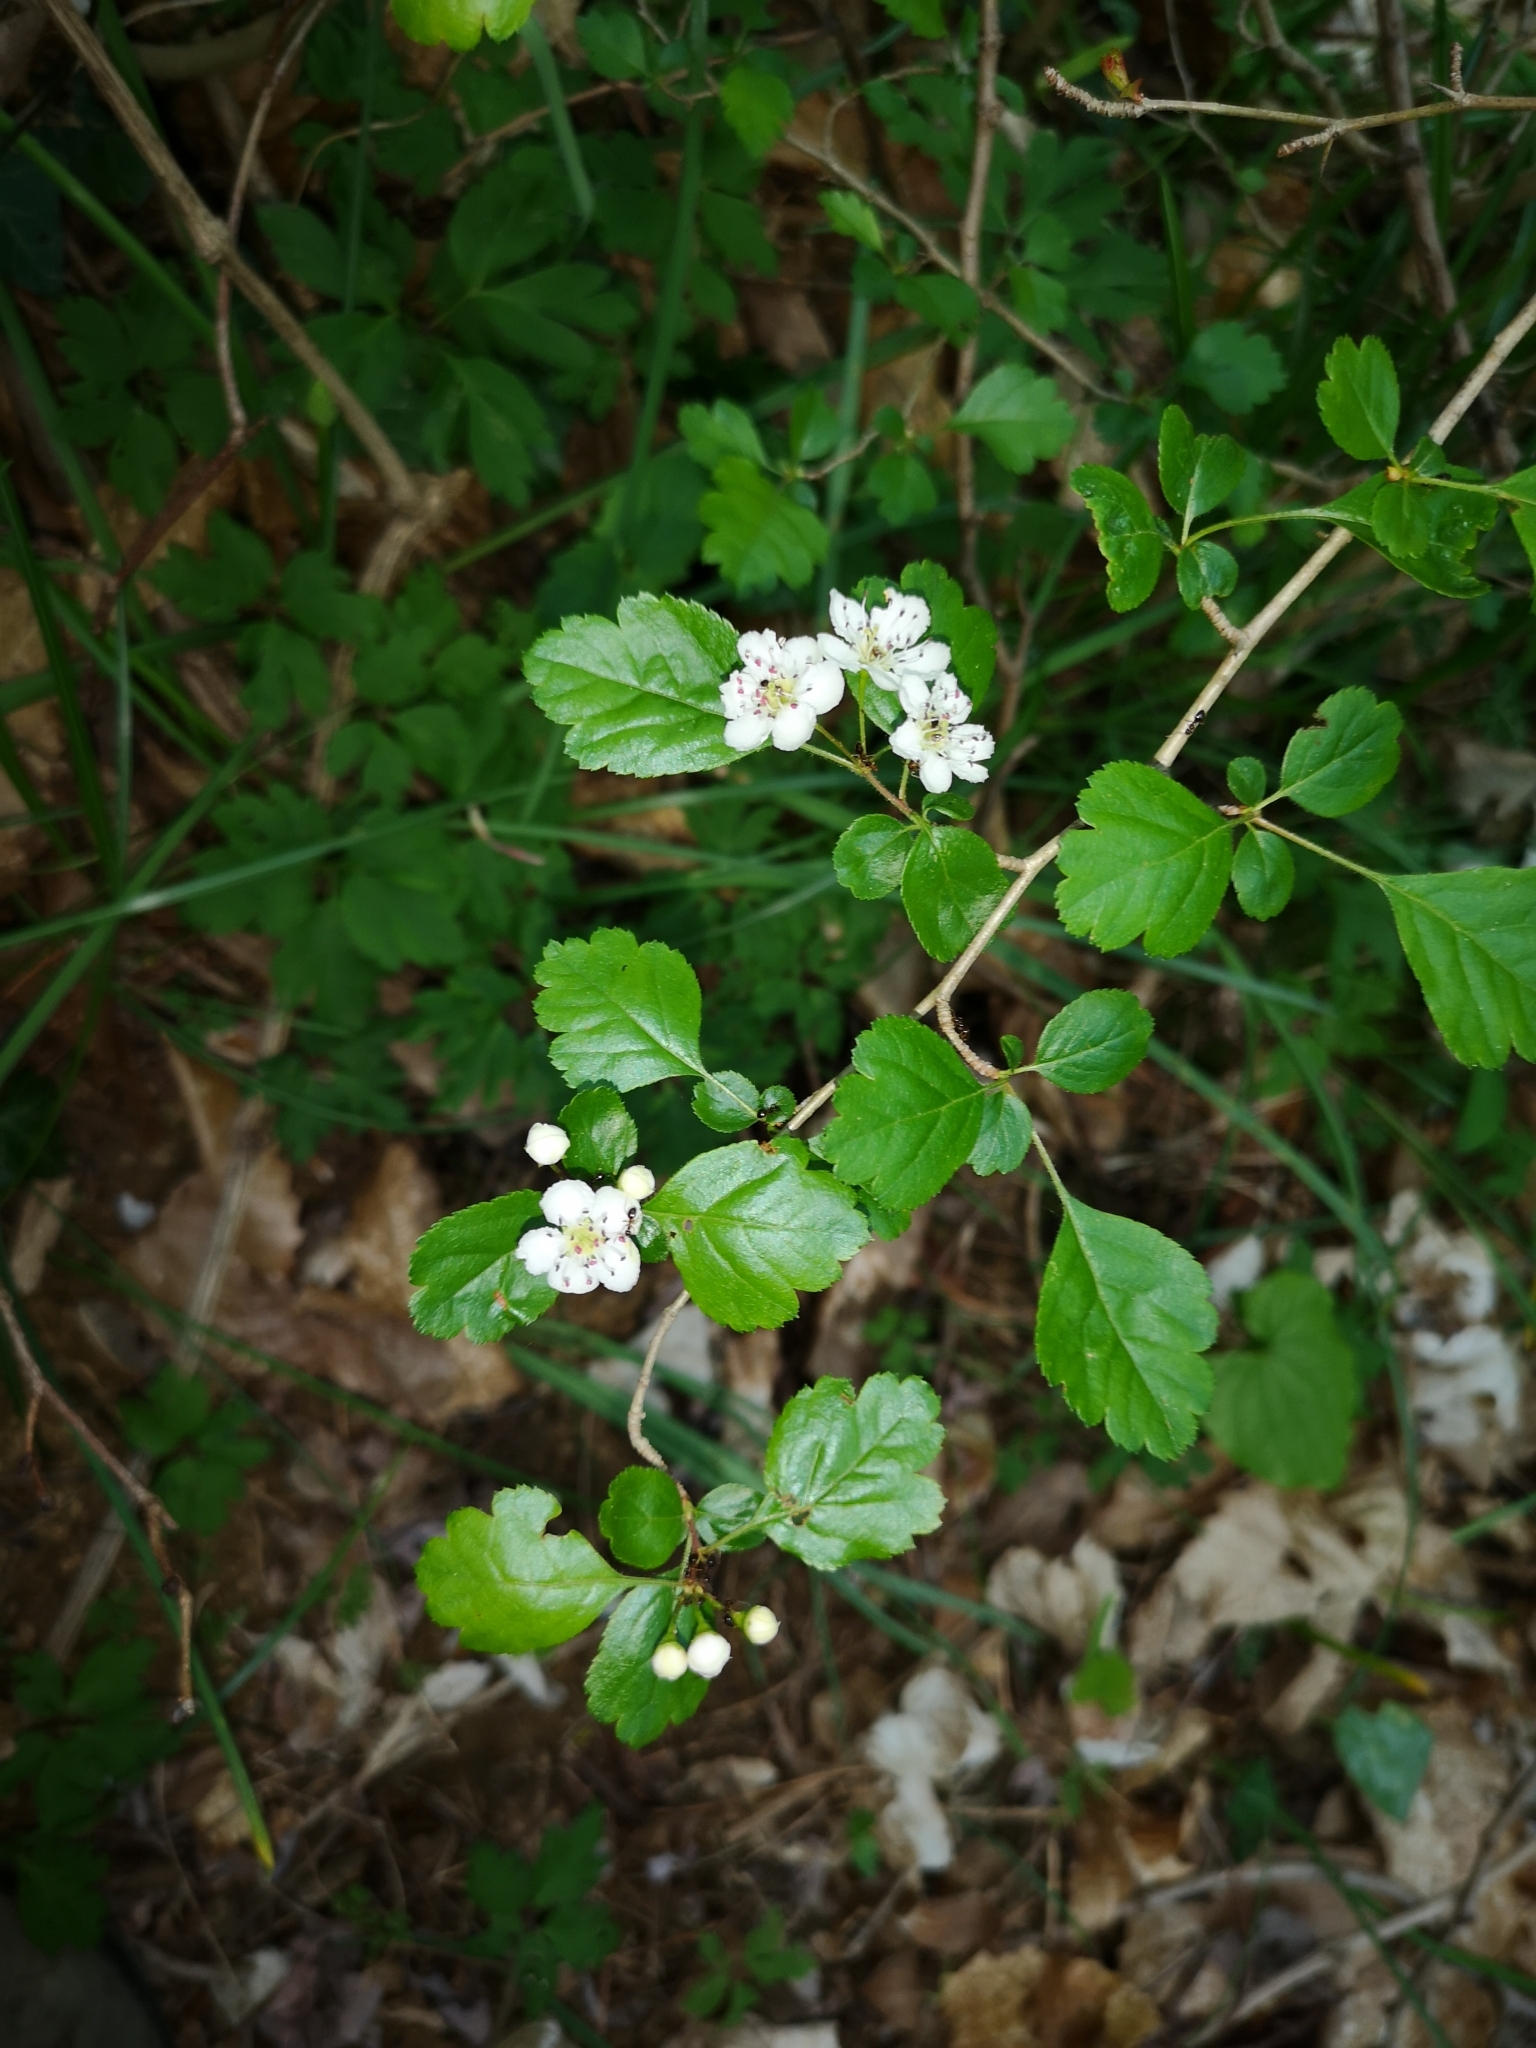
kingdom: Plantae
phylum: Tracheophyta
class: Magnoliopsida
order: Rosales
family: Rosaceae
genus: Crataegus
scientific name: Crataegus monogyna
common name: Hawthorn
